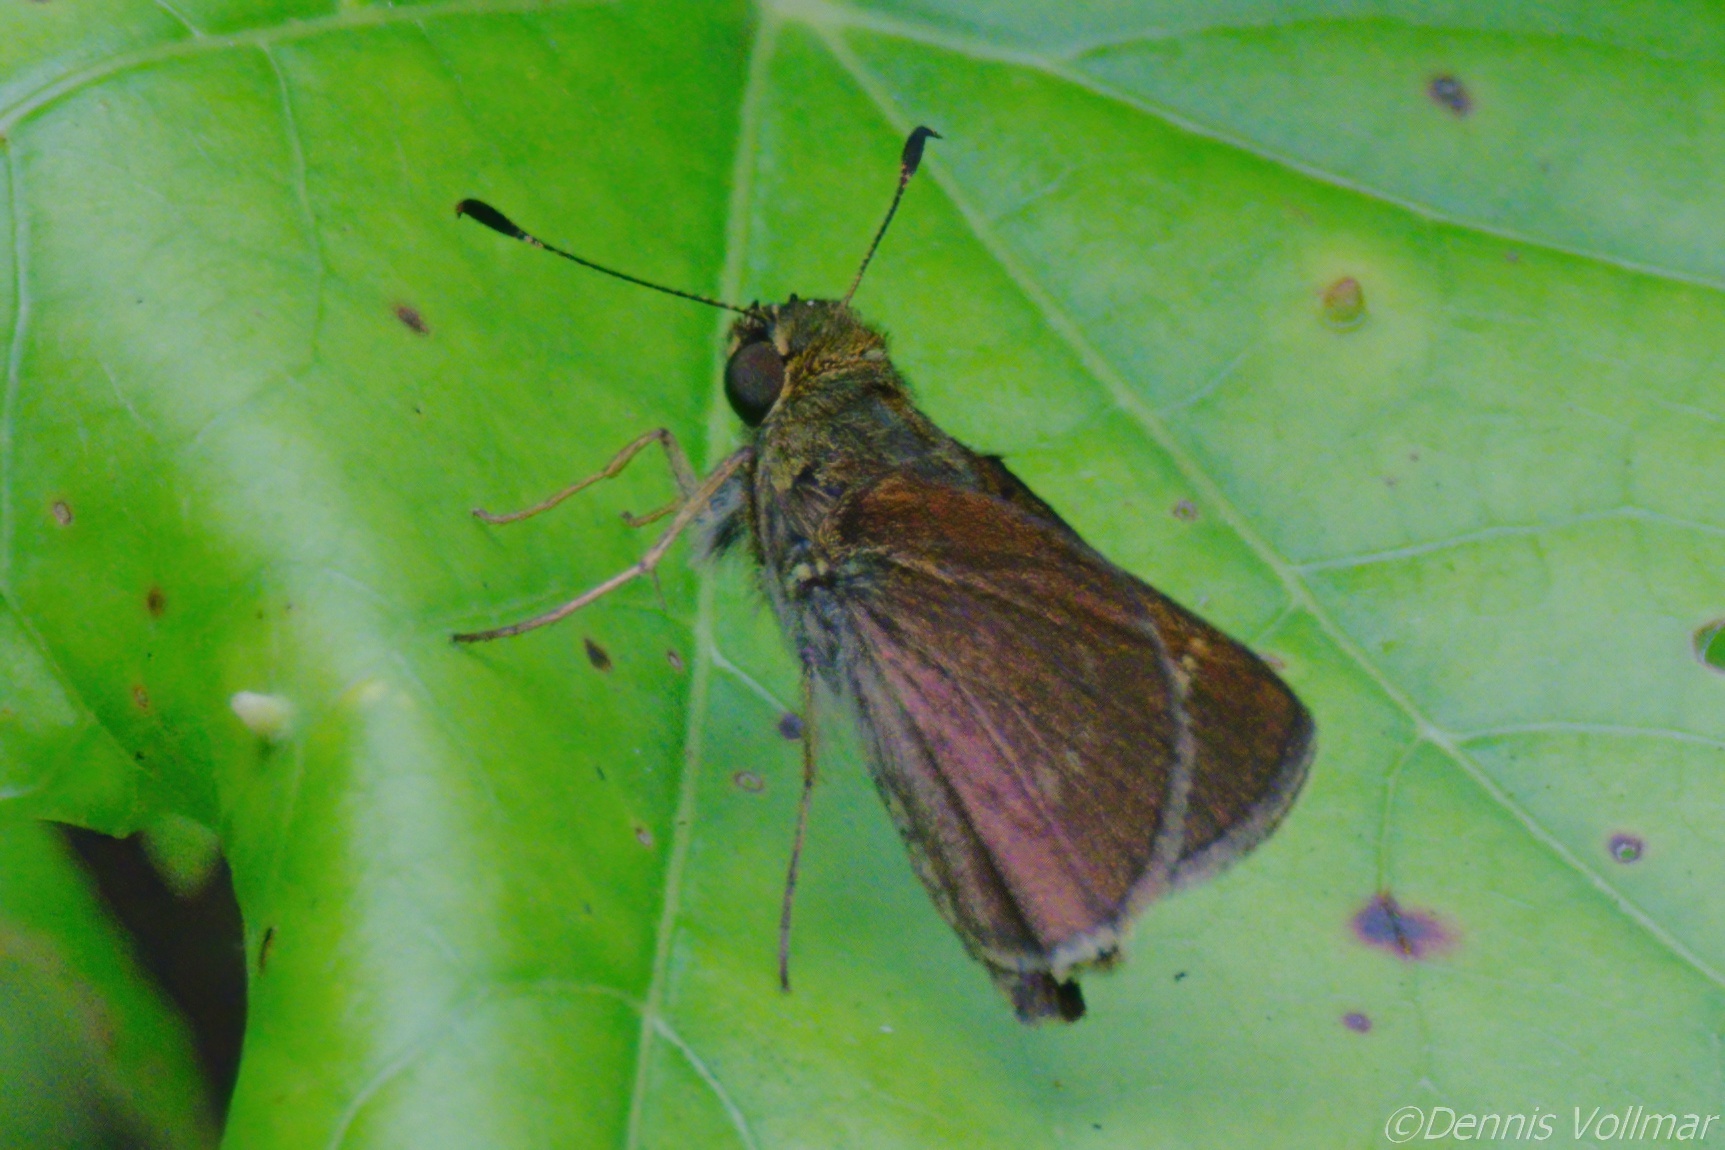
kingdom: Animalia
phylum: Arthropoda
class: Insecta
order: Lepidoptera
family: Hesperiidae
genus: Vernia
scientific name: Vernia verna
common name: Little glassywing
